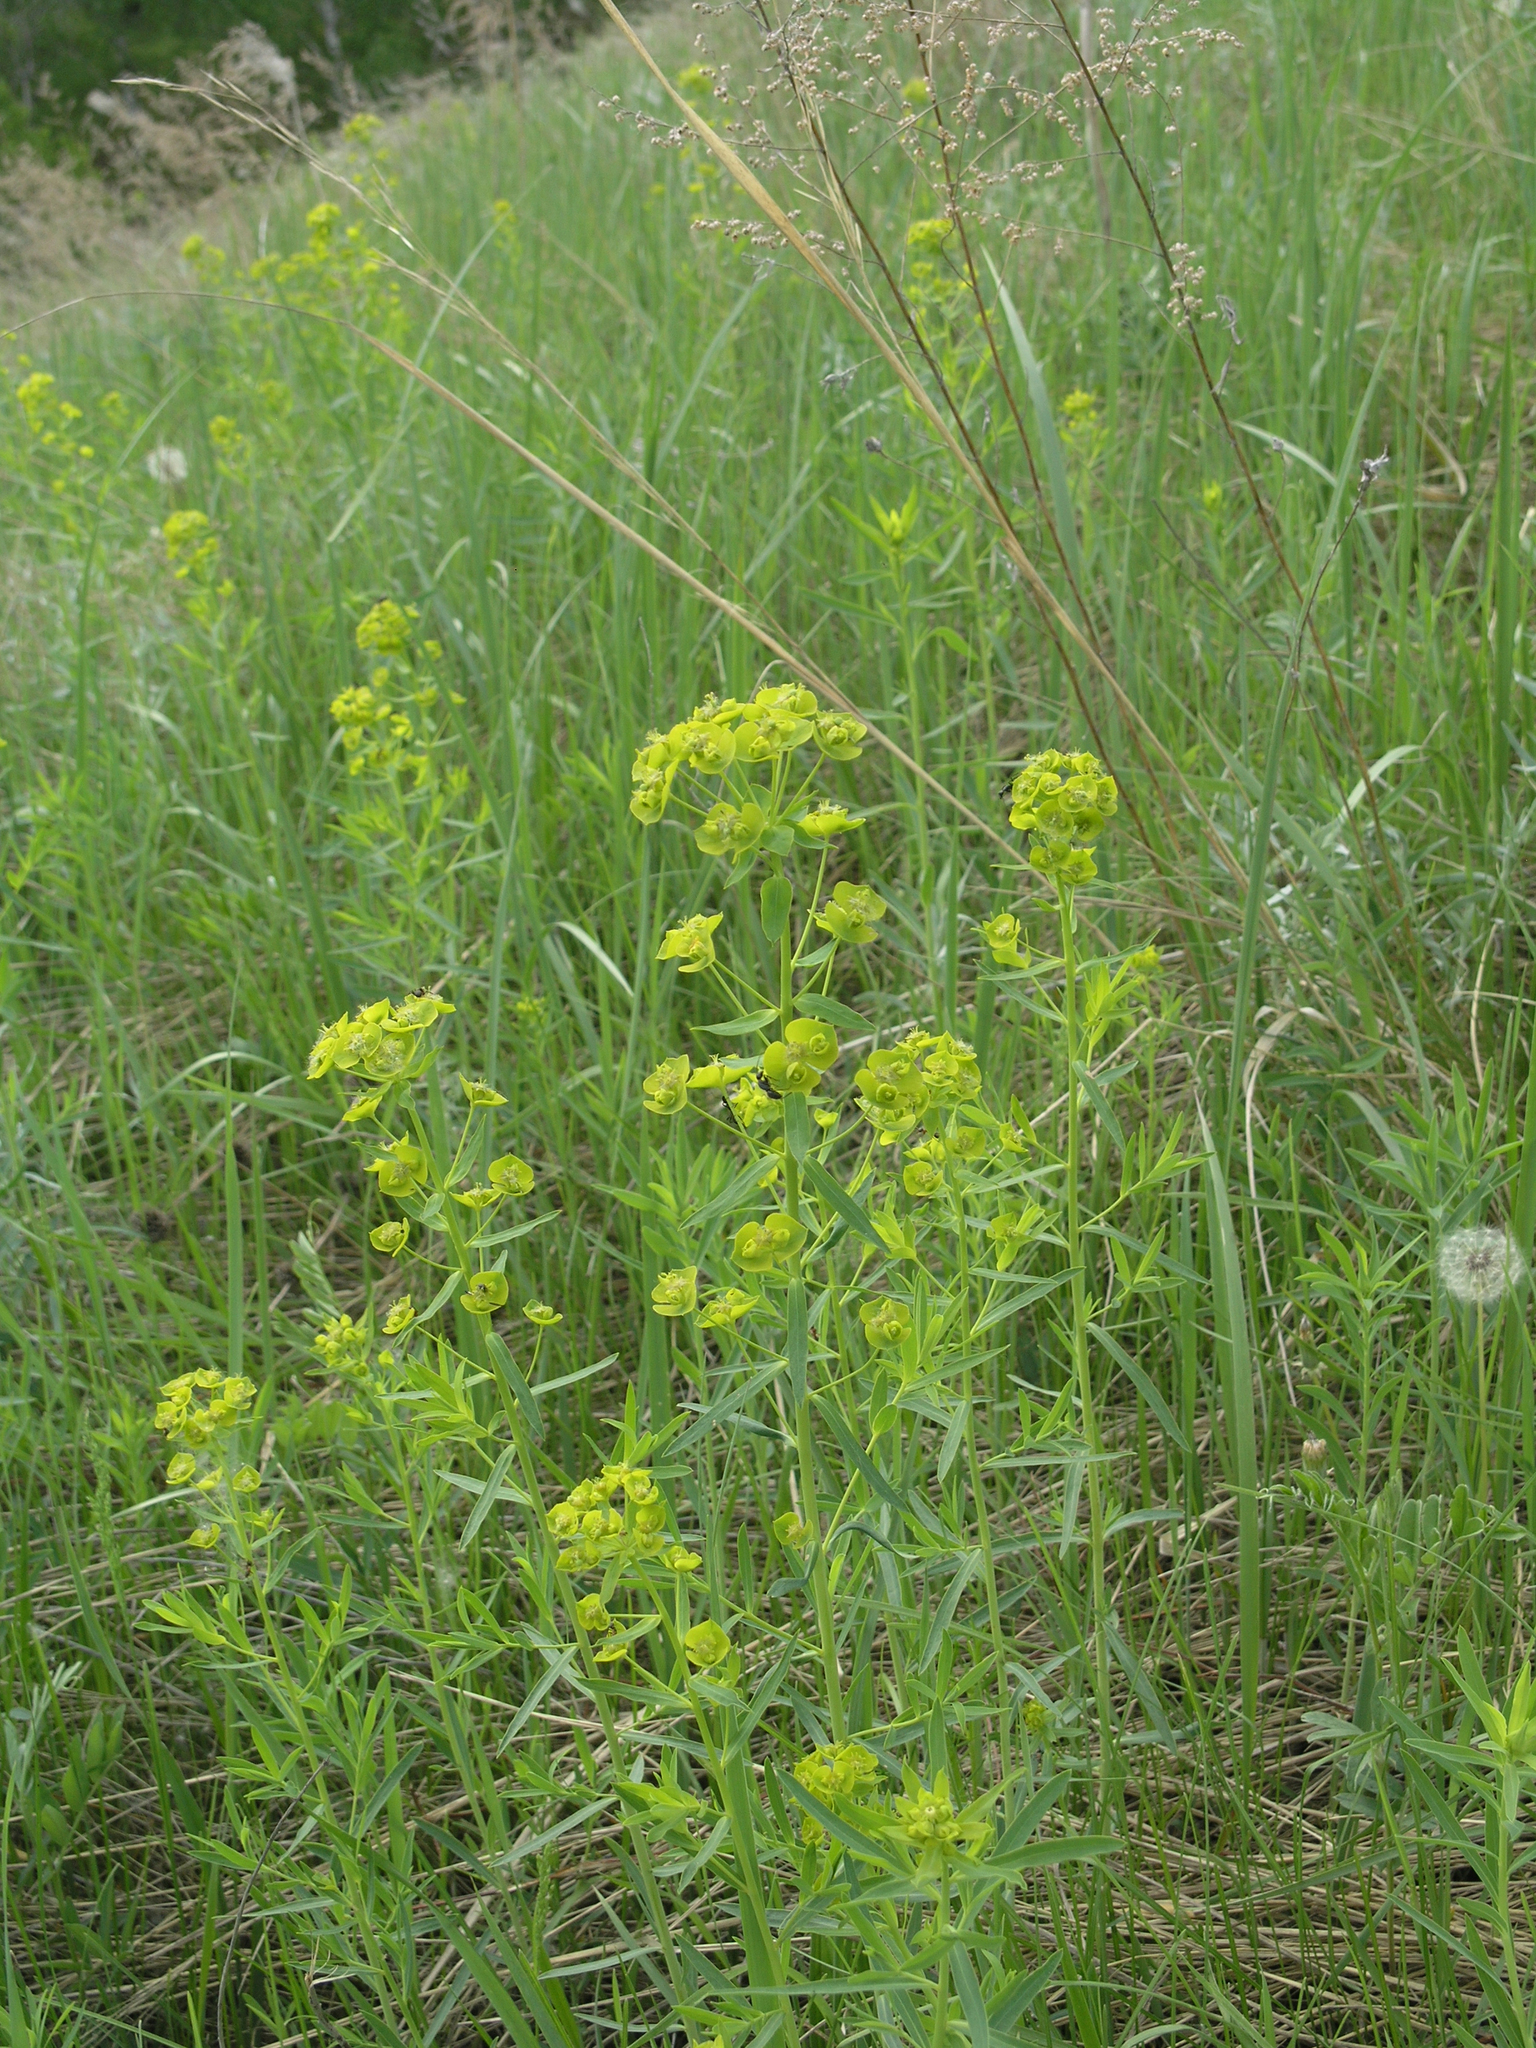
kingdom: Plantae
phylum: Tracheophyta
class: Magnoliopsida
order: Malpighiales
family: Euphorbiaceae
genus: Euphorbia
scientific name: Euphorbia virgata
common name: Leafy spurge
